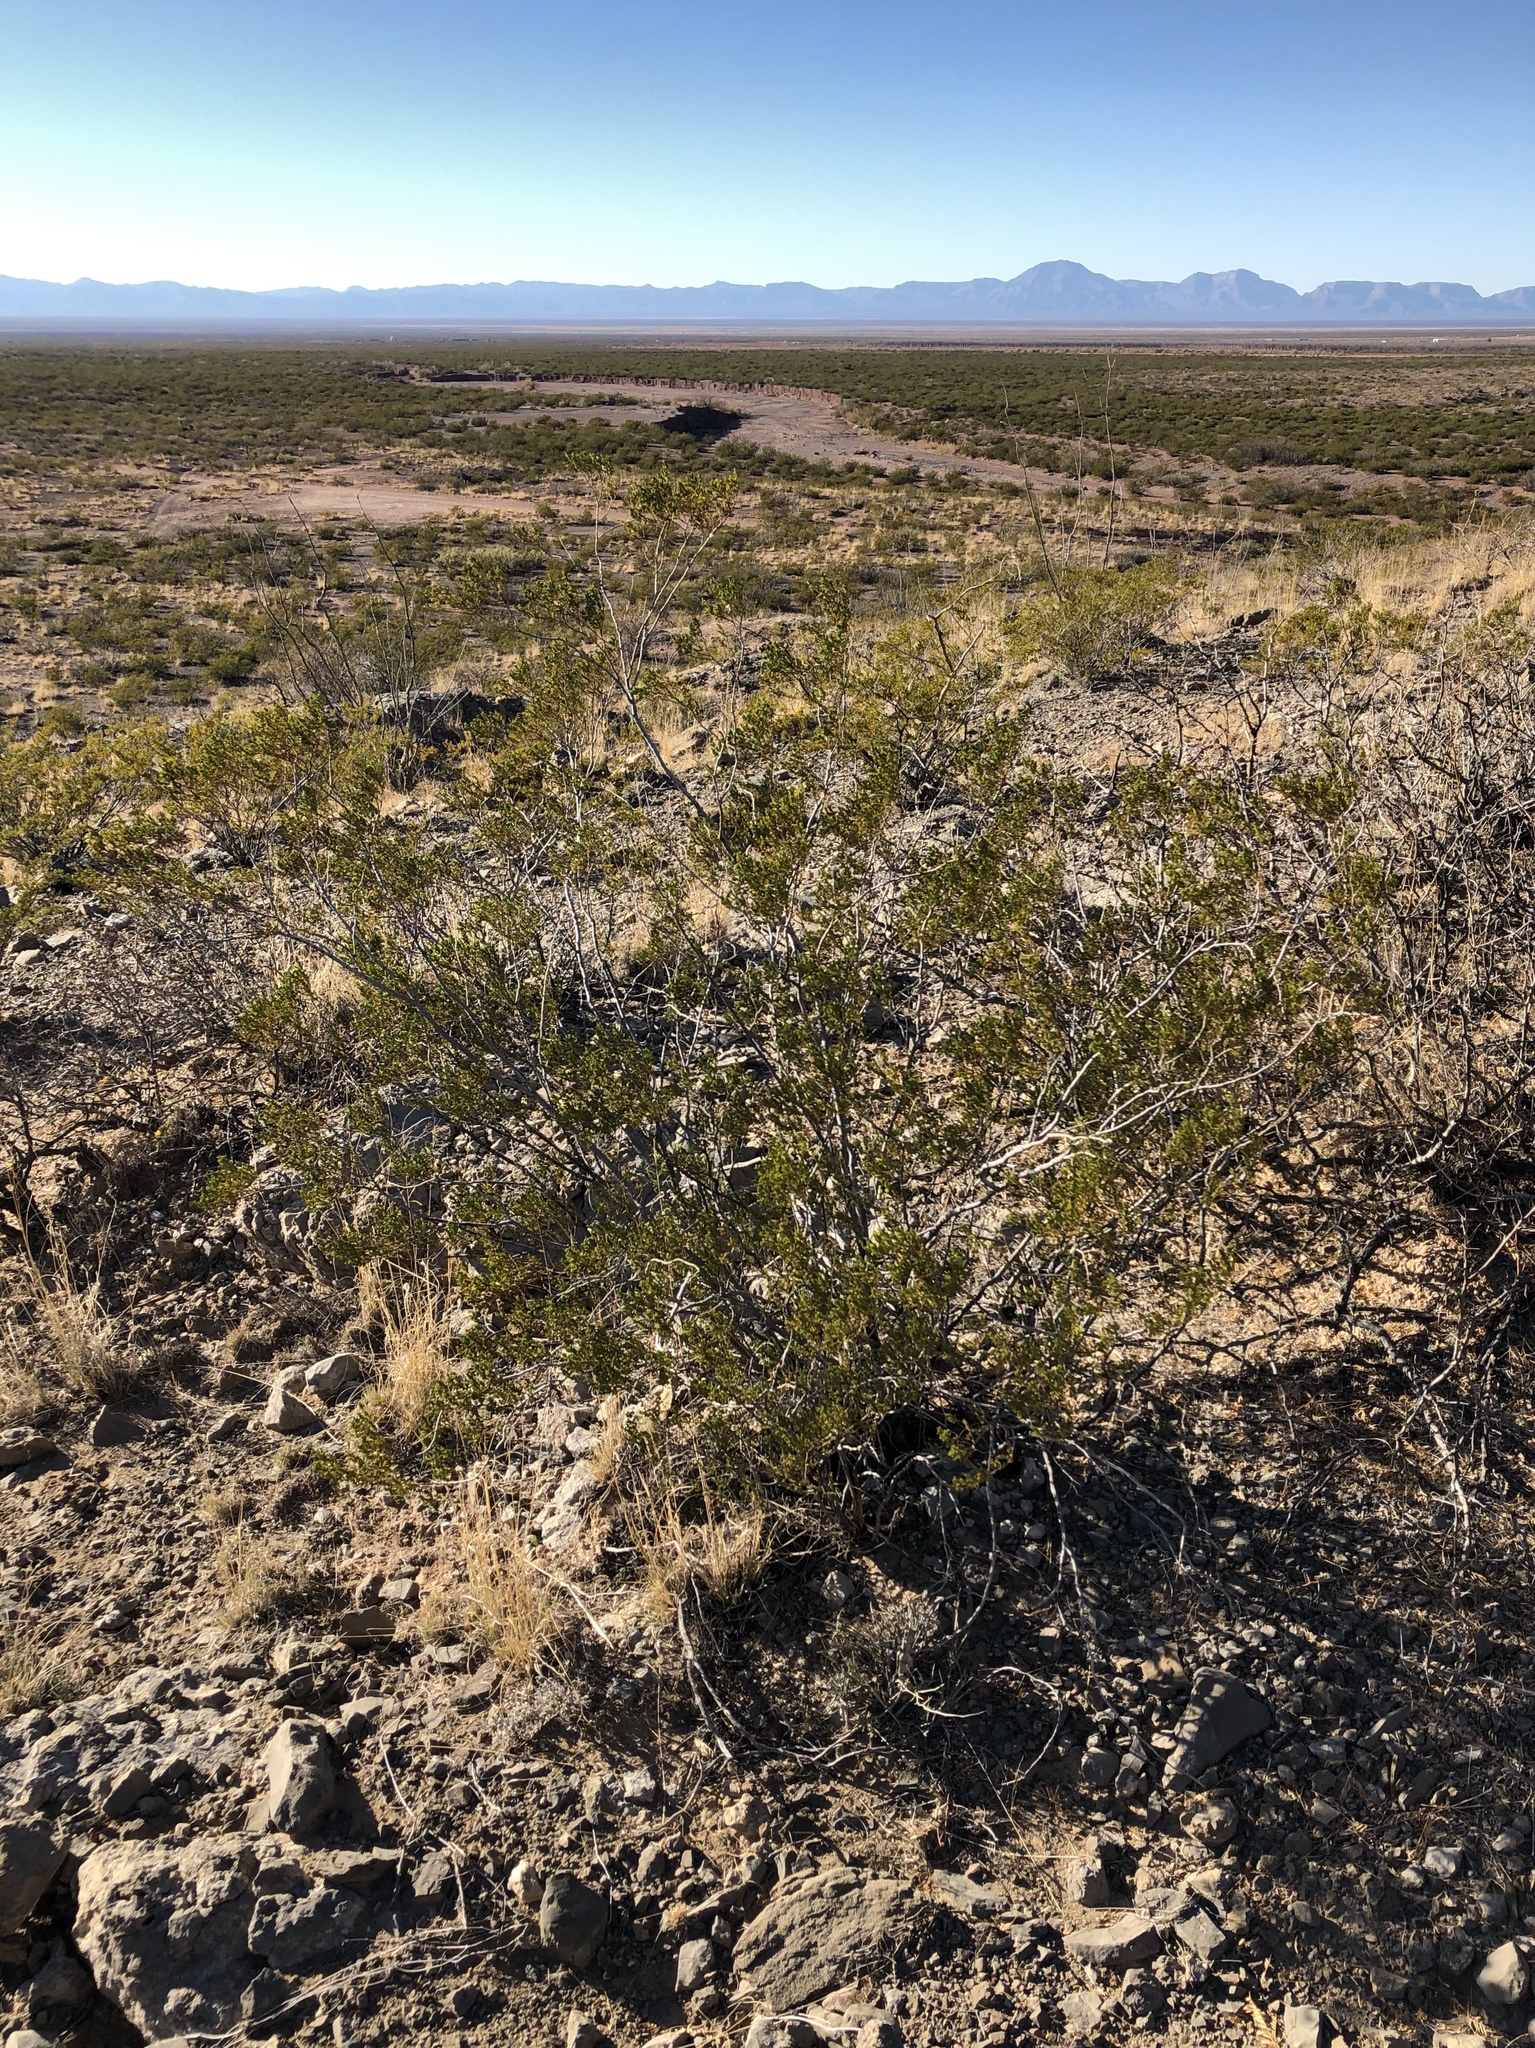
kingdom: Plantae
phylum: Tracheophyta
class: Magnoliopsida
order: Zygophyllales
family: Zygophyllaceae
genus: Larrea
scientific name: Larrea tridentata
